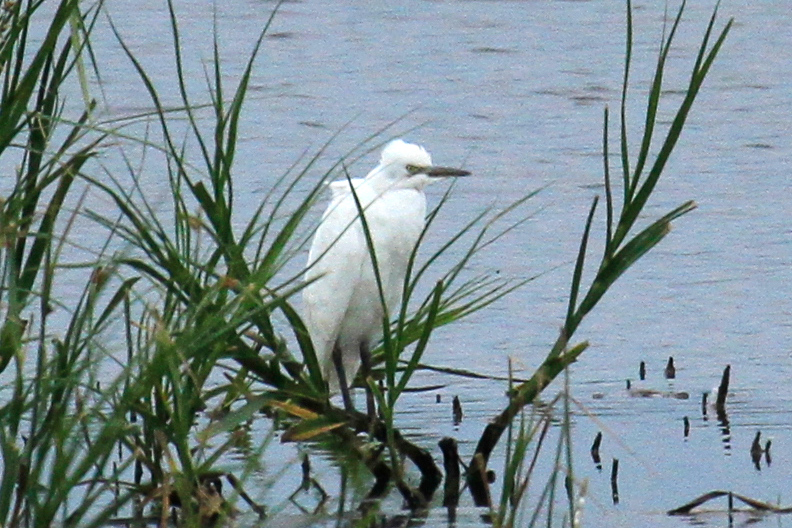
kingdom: Animalia
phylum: Chordata
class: Aves
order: Pelecaniformes
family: Ardeidae
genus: Egretta
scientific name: Egretta caerulea
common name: Little blue heron
